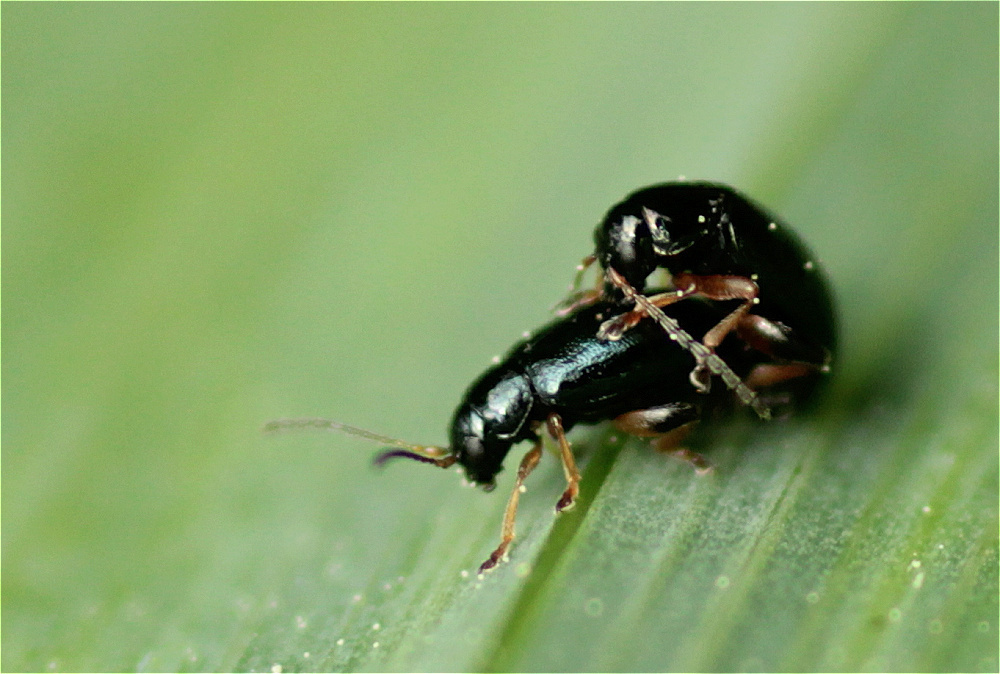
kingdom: Animalia
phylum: Arthropoda
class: Insecta
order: Coleoptera
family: Chrysomelidae
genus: Aphthona
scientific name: Aphthona nonstriata
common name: Iris flea beetle
